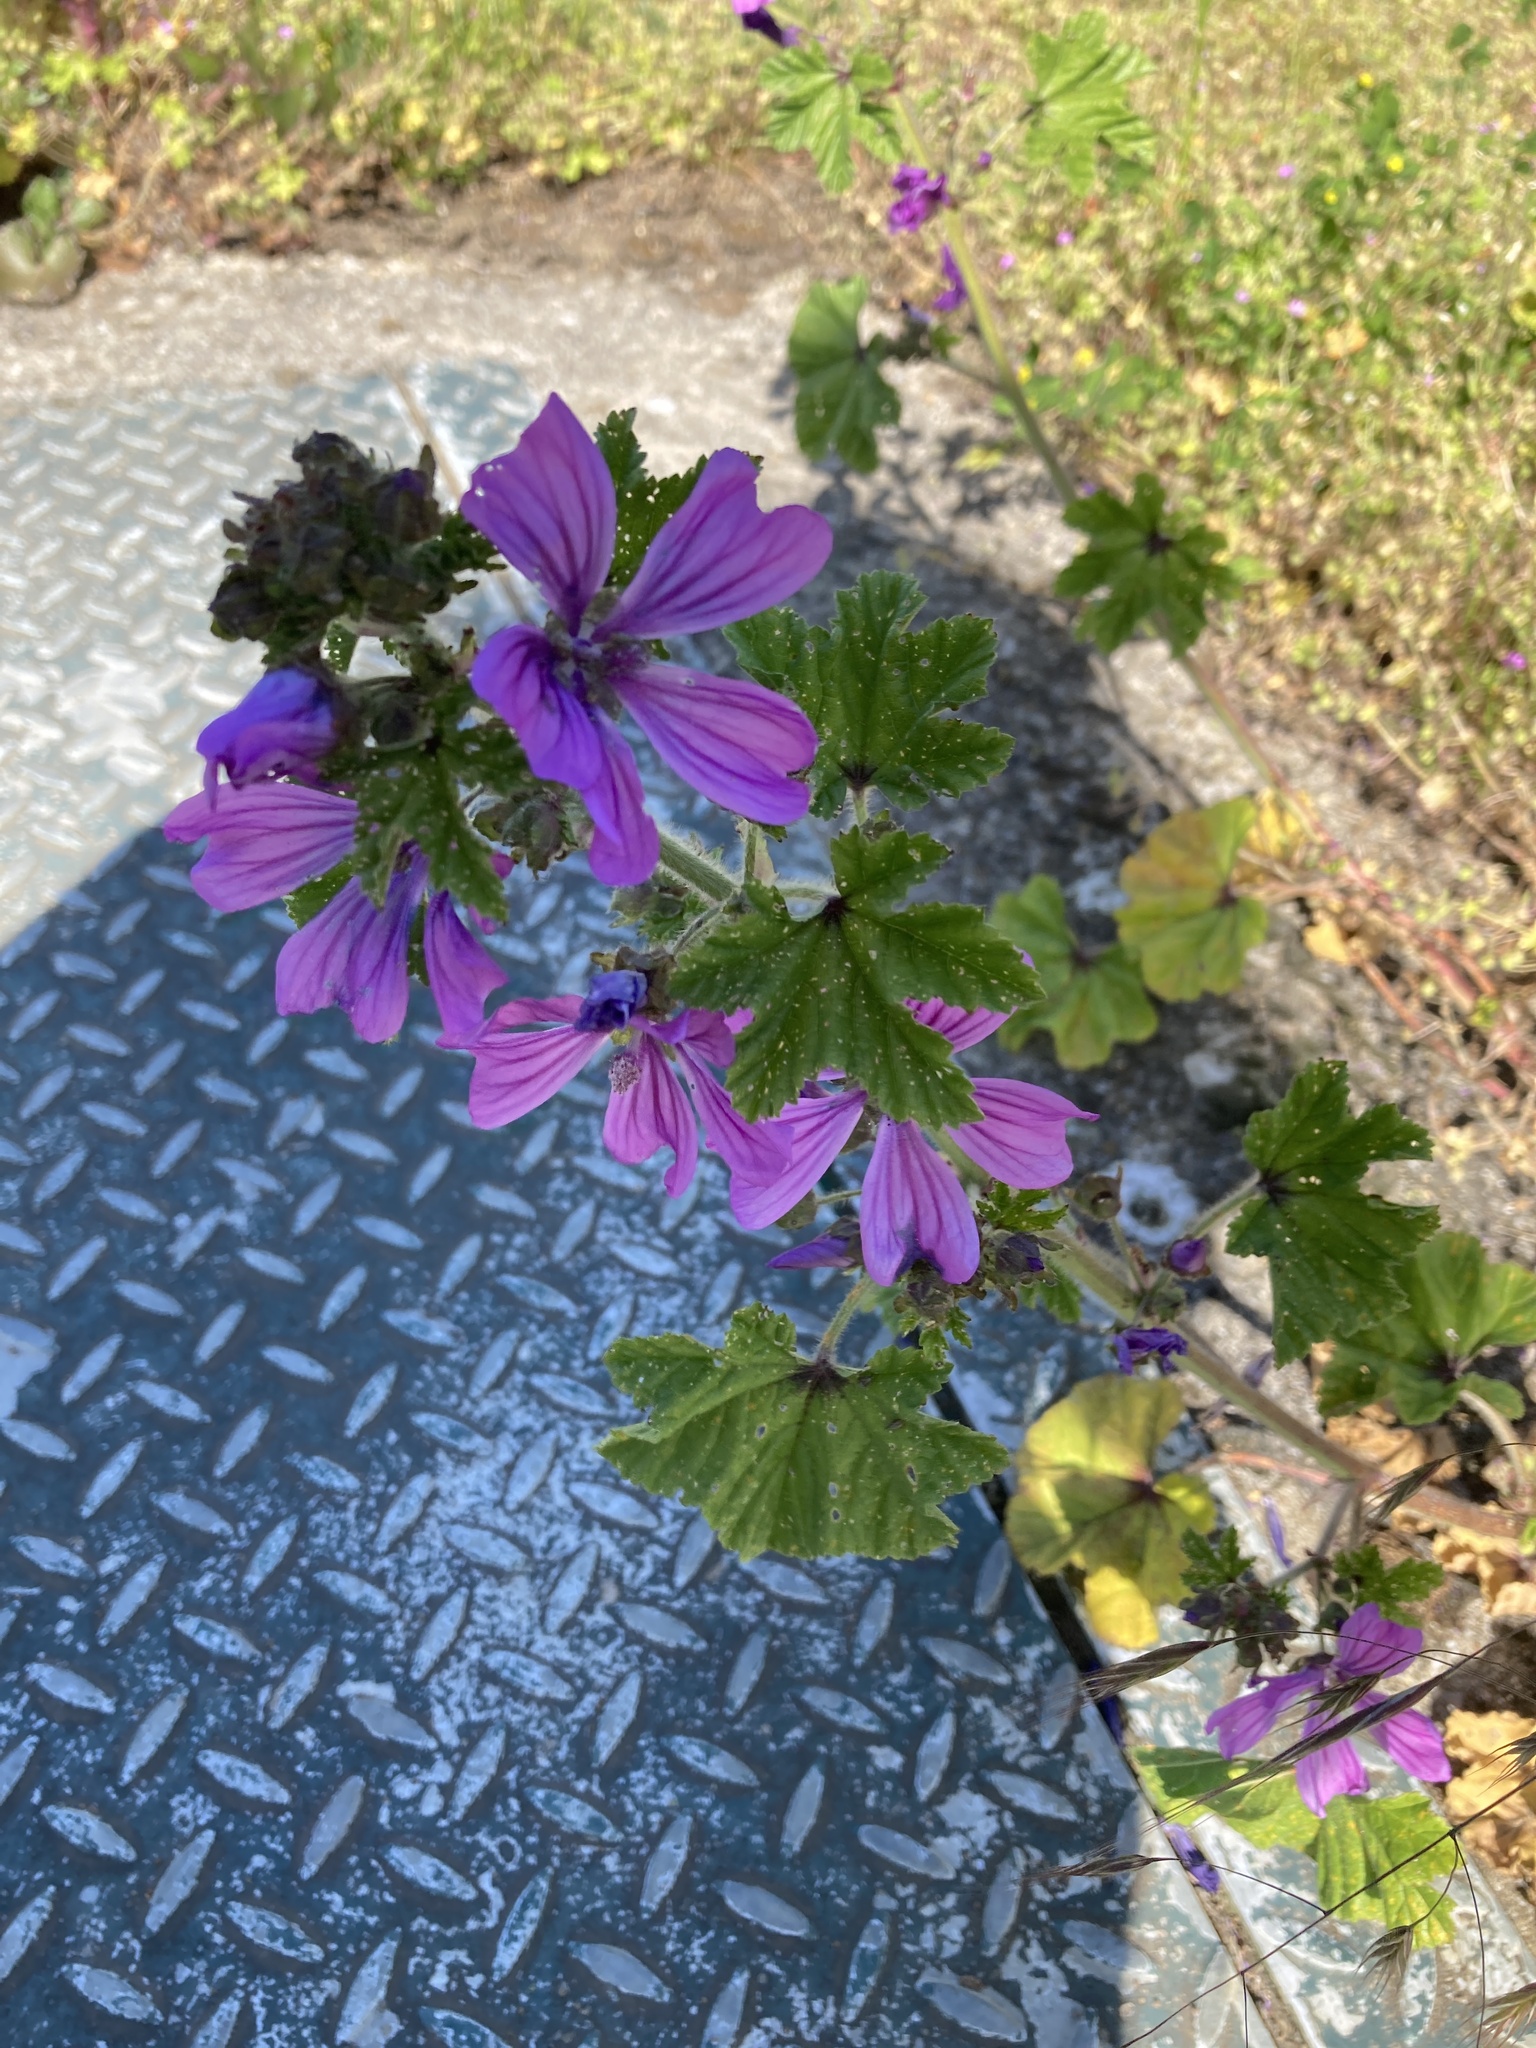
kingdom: Plantae
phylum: Tracheophyta
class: Magnoliopsida
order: Malvales
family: Malvaceae
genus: Malva
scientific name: Malva sylvestris
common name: Common mallow
